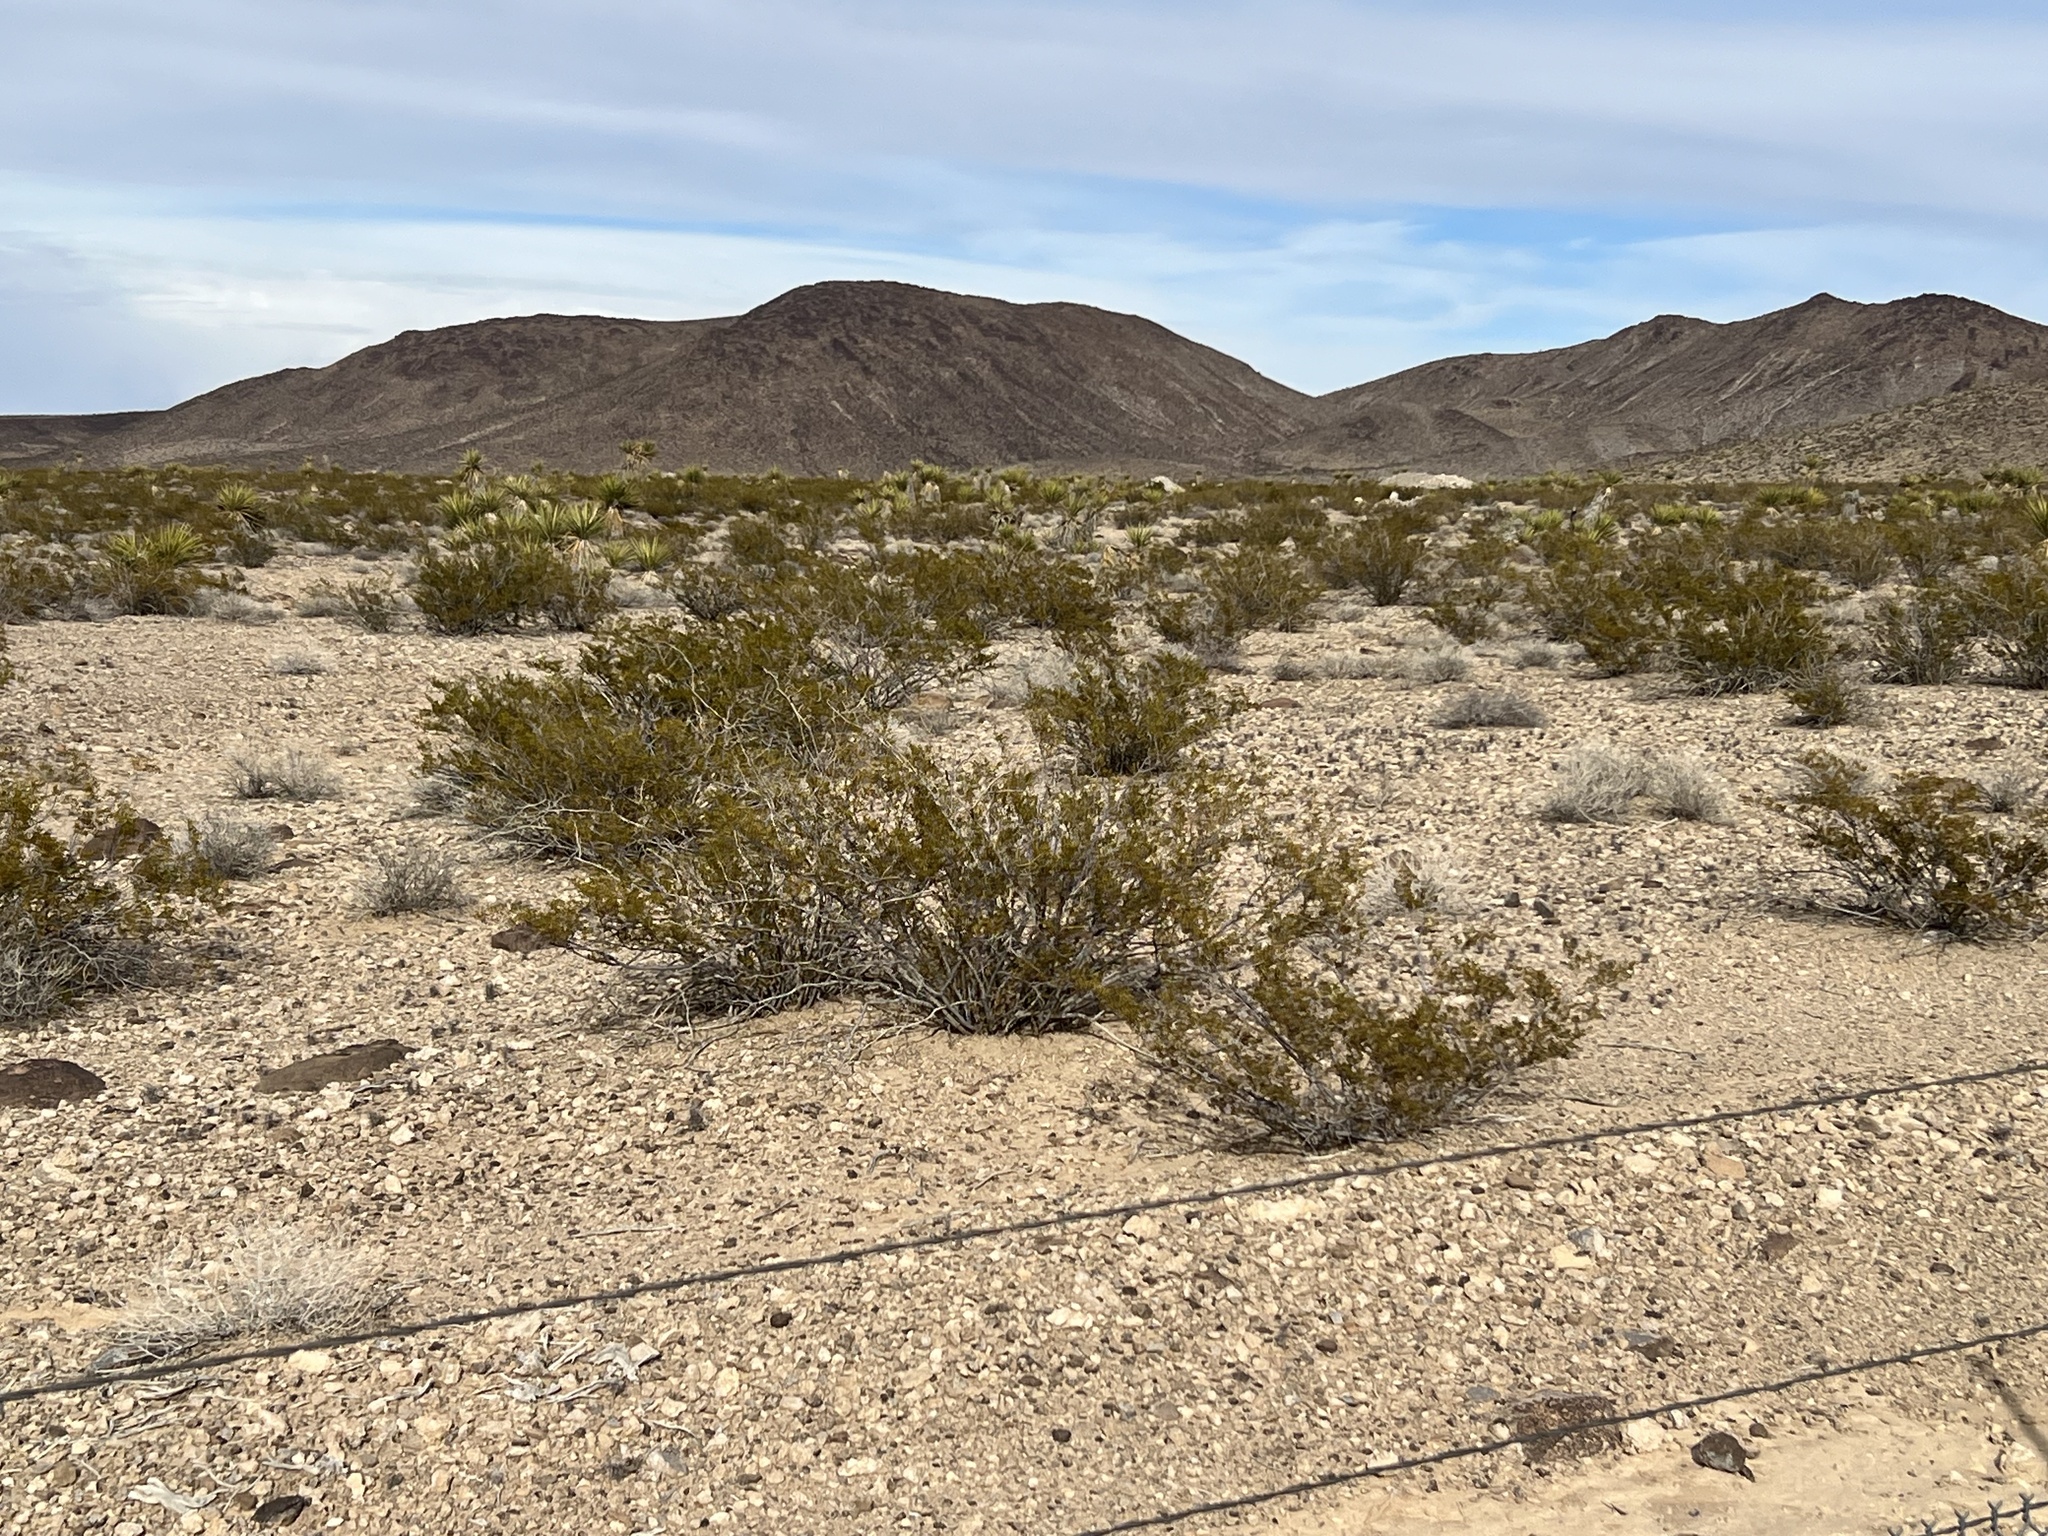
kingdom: Plantae
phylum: Tracheophyta
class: Magnoliopsida
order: Zygophyllales
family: Zygophyllaceae
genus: Larrea
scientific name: Larrea tridentata
